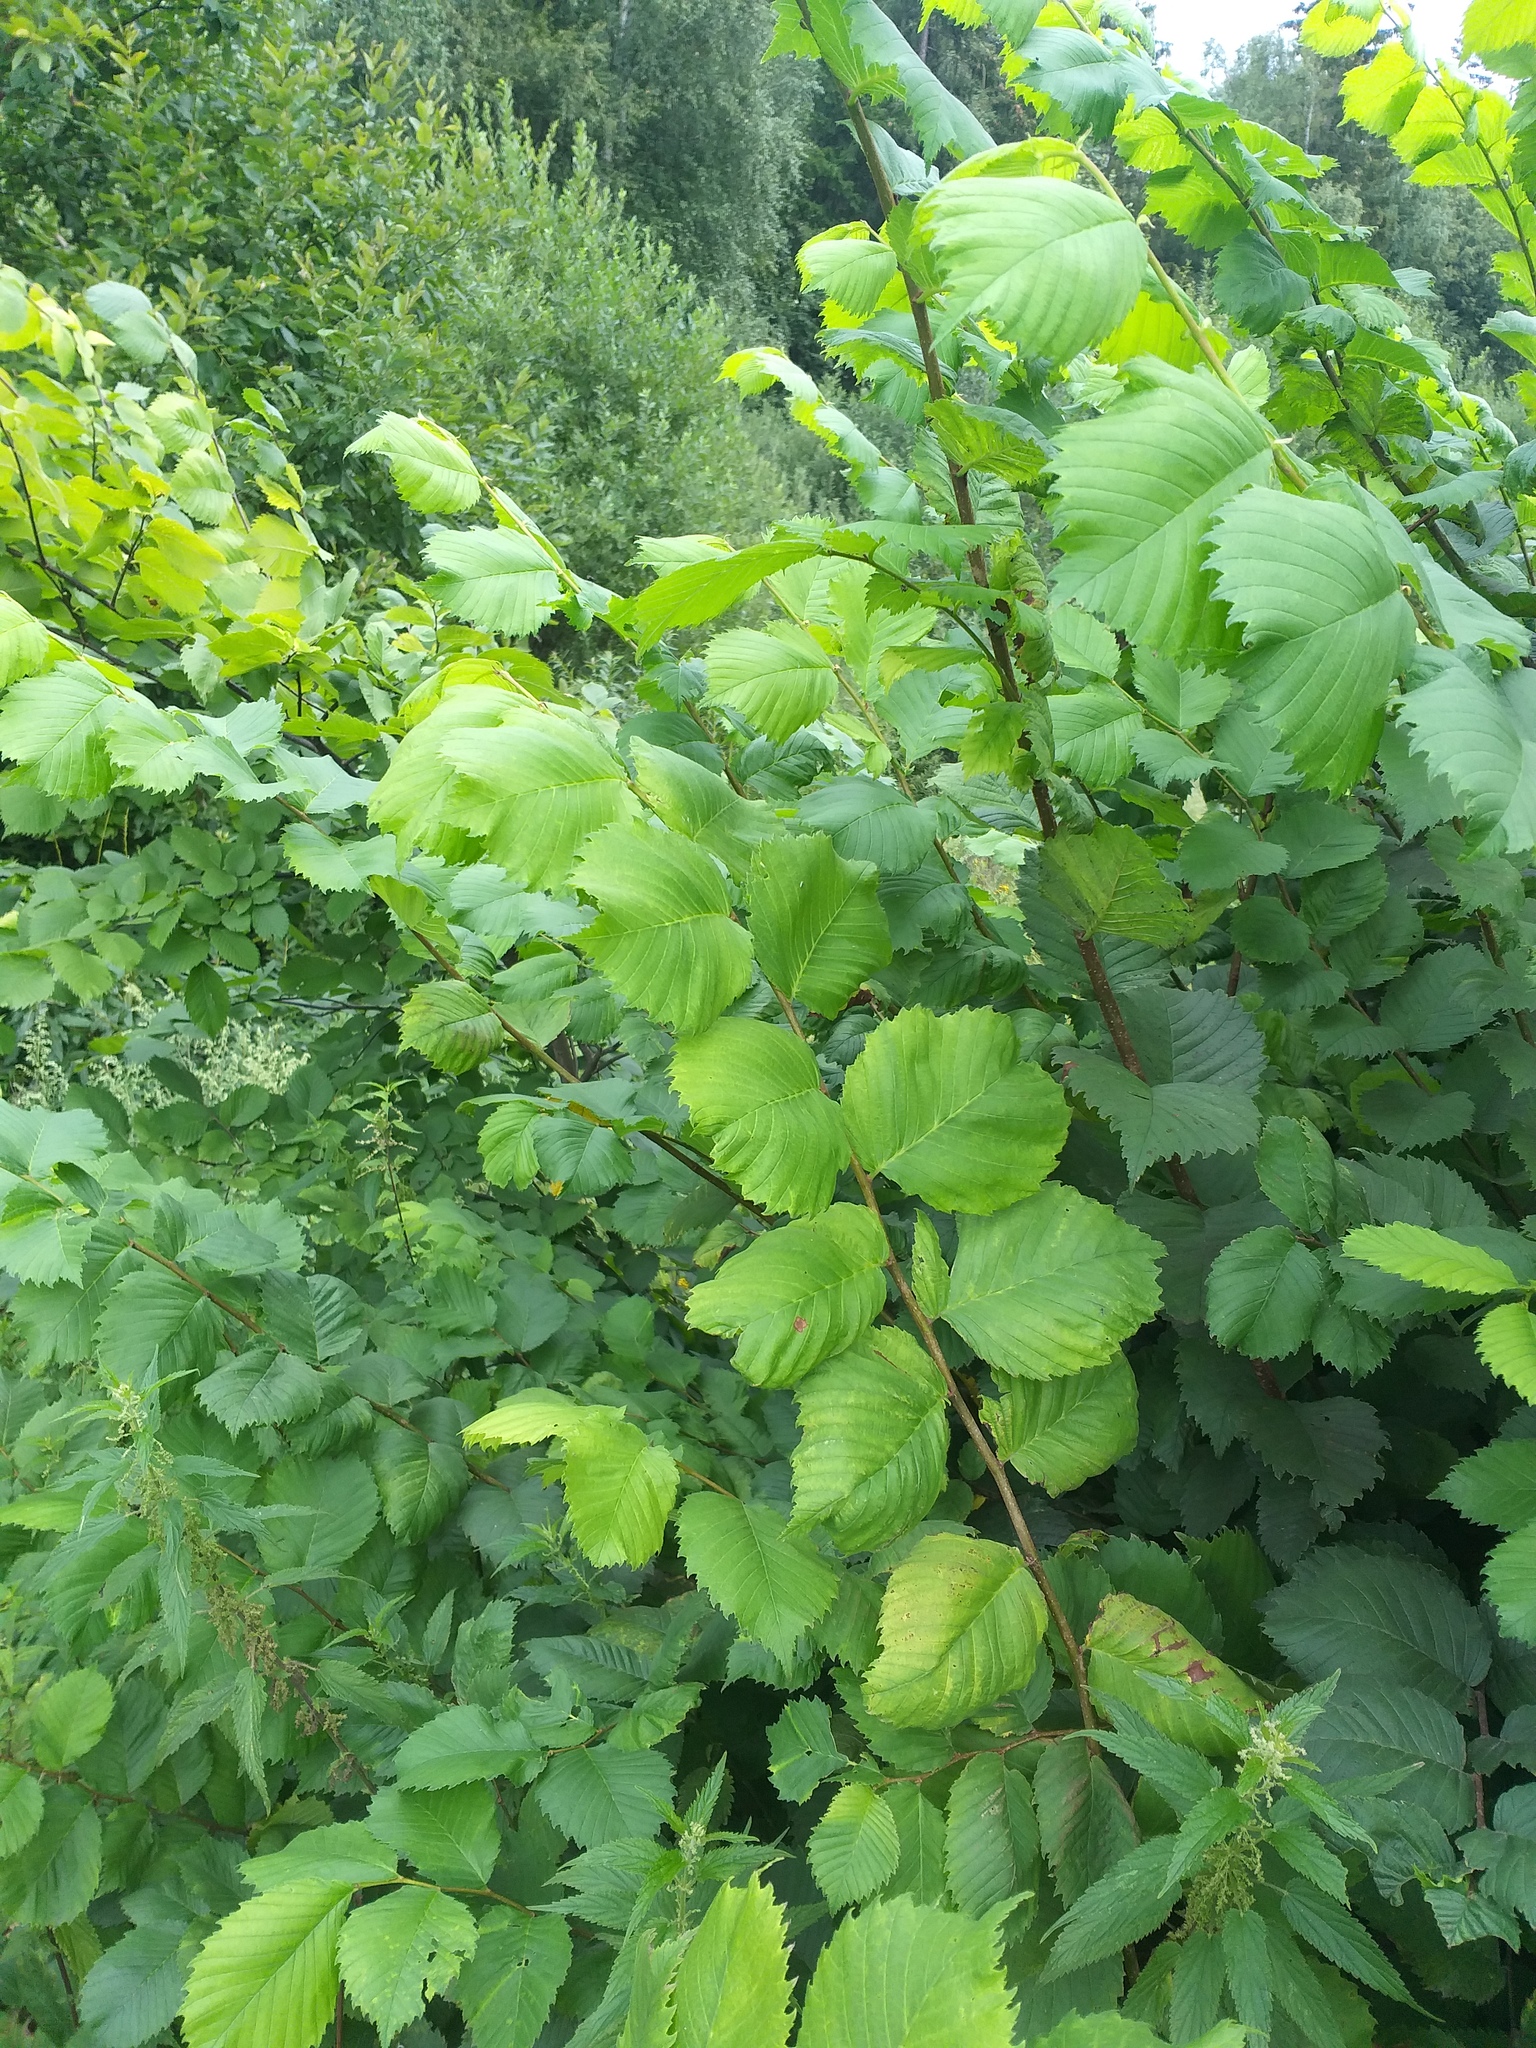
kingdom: Plantae
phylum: Tracheophyta
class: Magnoliopsida
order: Rosales
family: Ulmaceae
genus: Ulmus
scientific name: Ulmus laevis
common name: European white-elm
